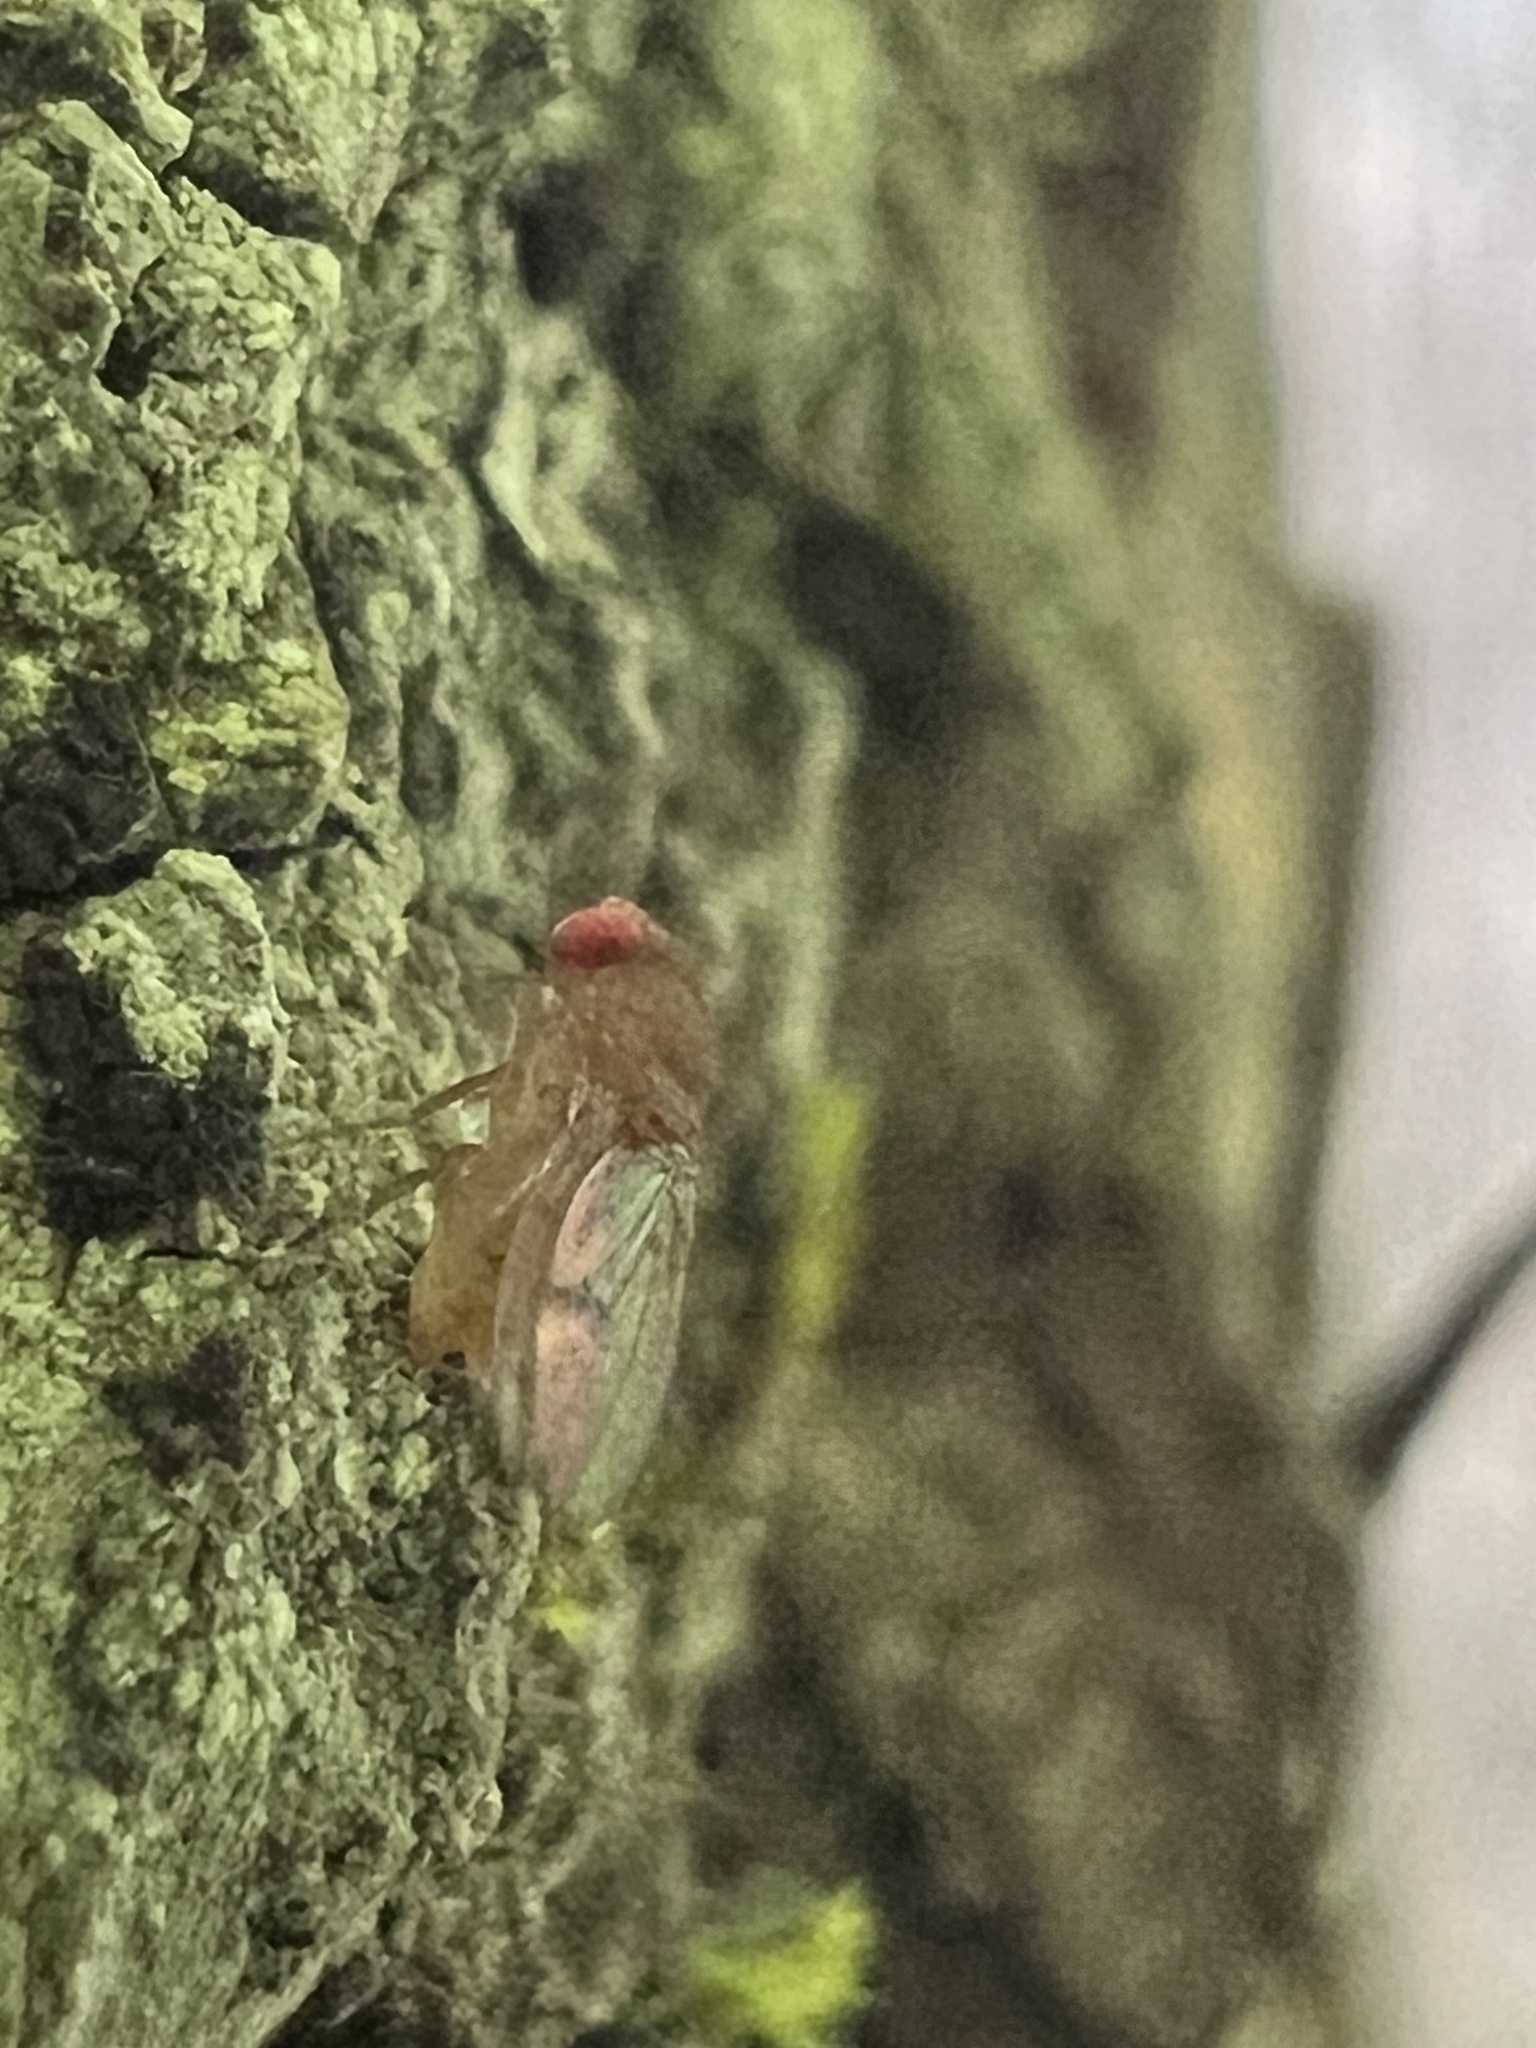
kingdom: Animalia
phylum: Arthropoda
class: Insecta
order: Diptera
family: Drosophilidae
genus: Drosophila
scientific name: Drosophila tripunctata
